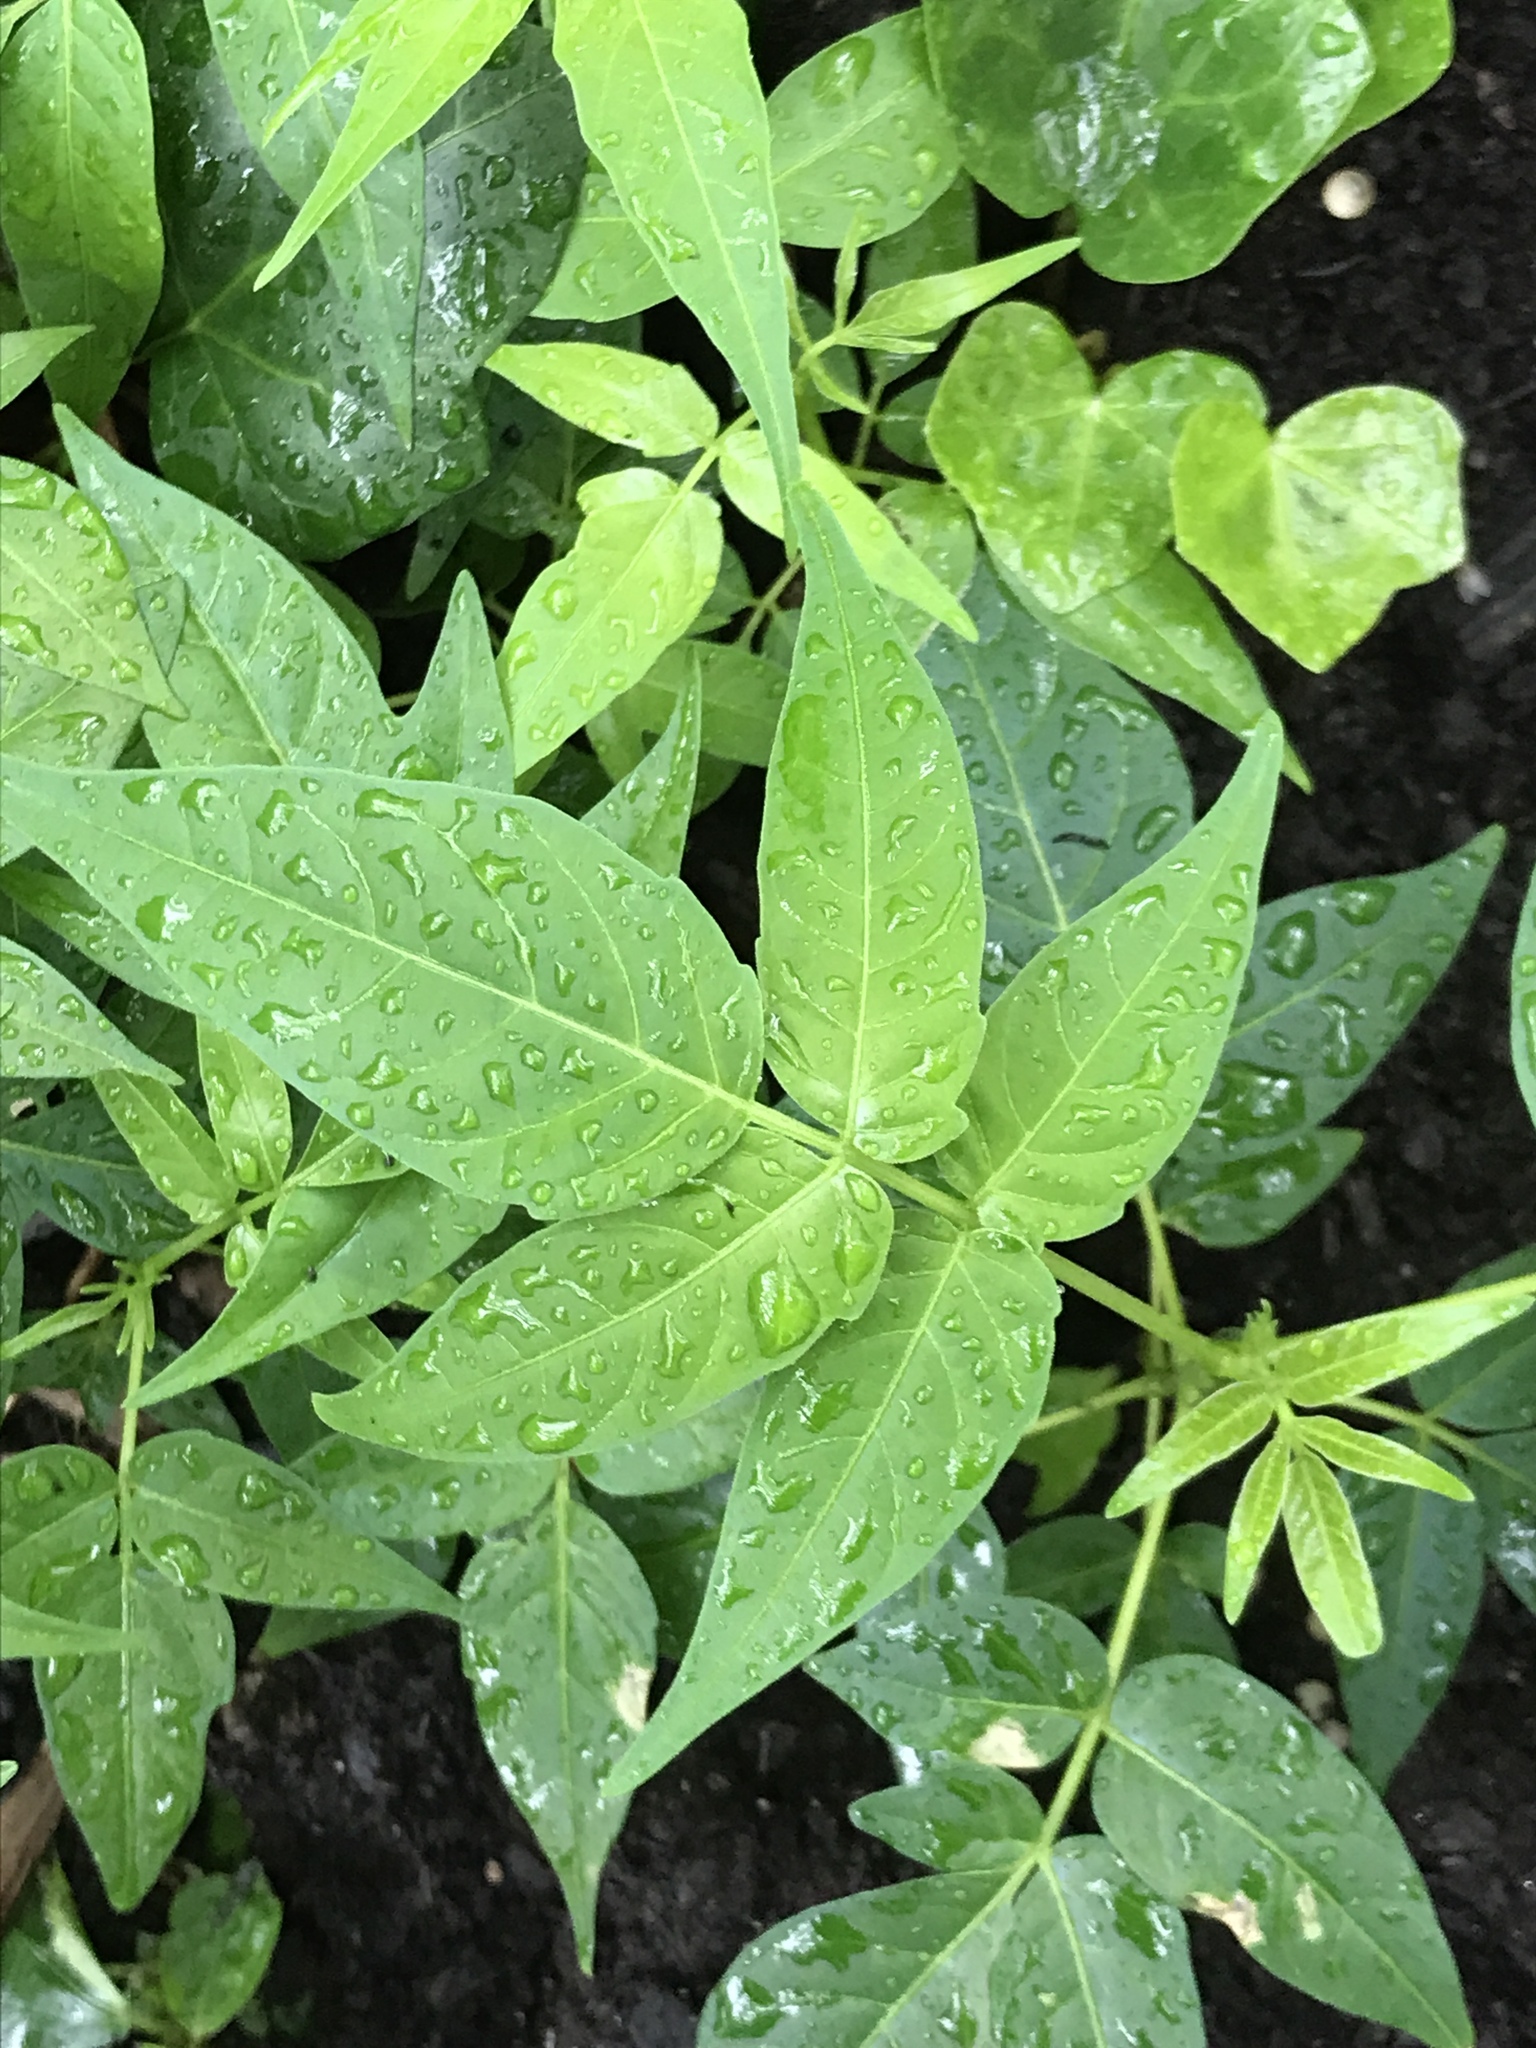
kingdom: Plantae
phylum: Tracheophyta
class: Magnoliopsida
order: Sapindales
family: Simaroubaceae
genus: Ailanthus
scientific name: Ailanthus altissima
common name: Tree-of-heaven
